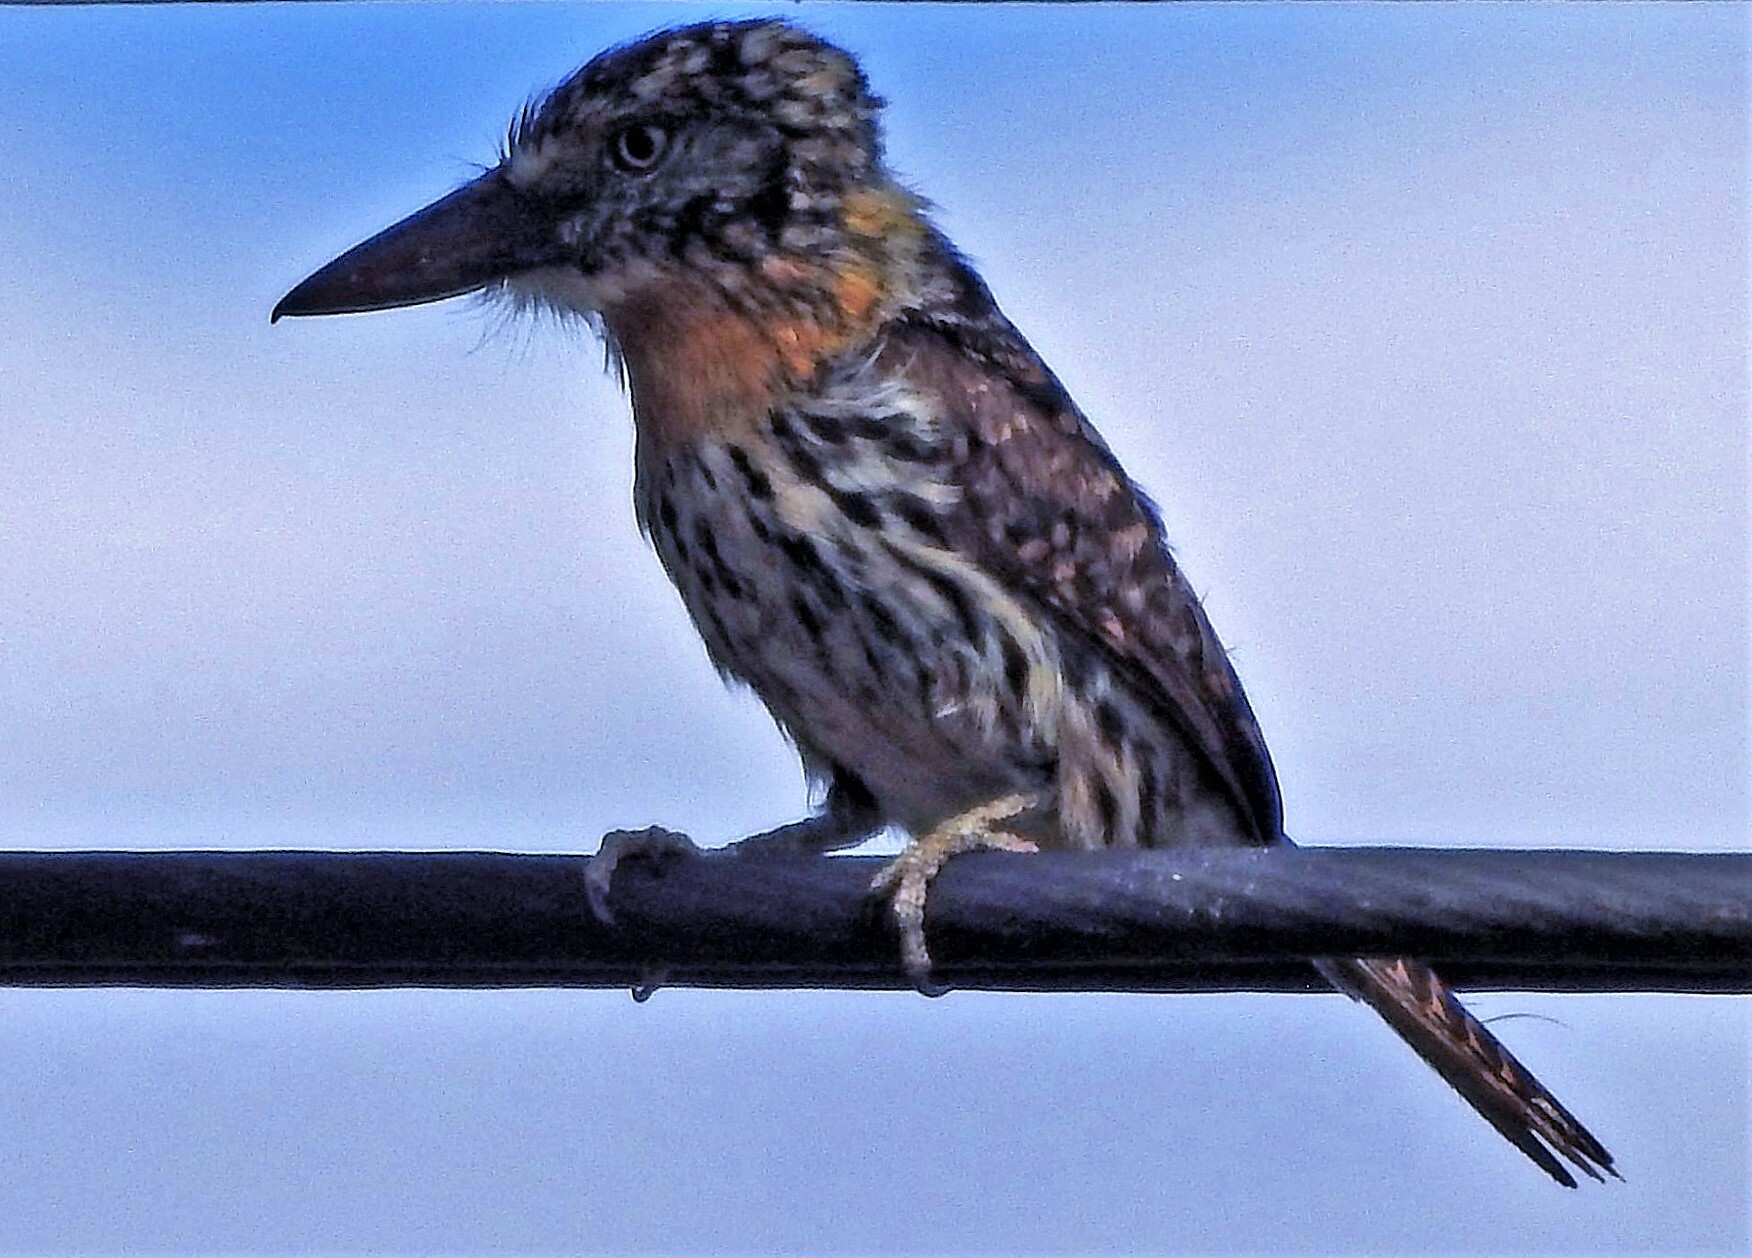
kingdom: Animalia
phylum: Chordata
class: Aves
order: Piciformes
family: Bucconidae
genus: Nystalus
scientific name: Nystalus maculatus
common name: Caatinga puffbird
